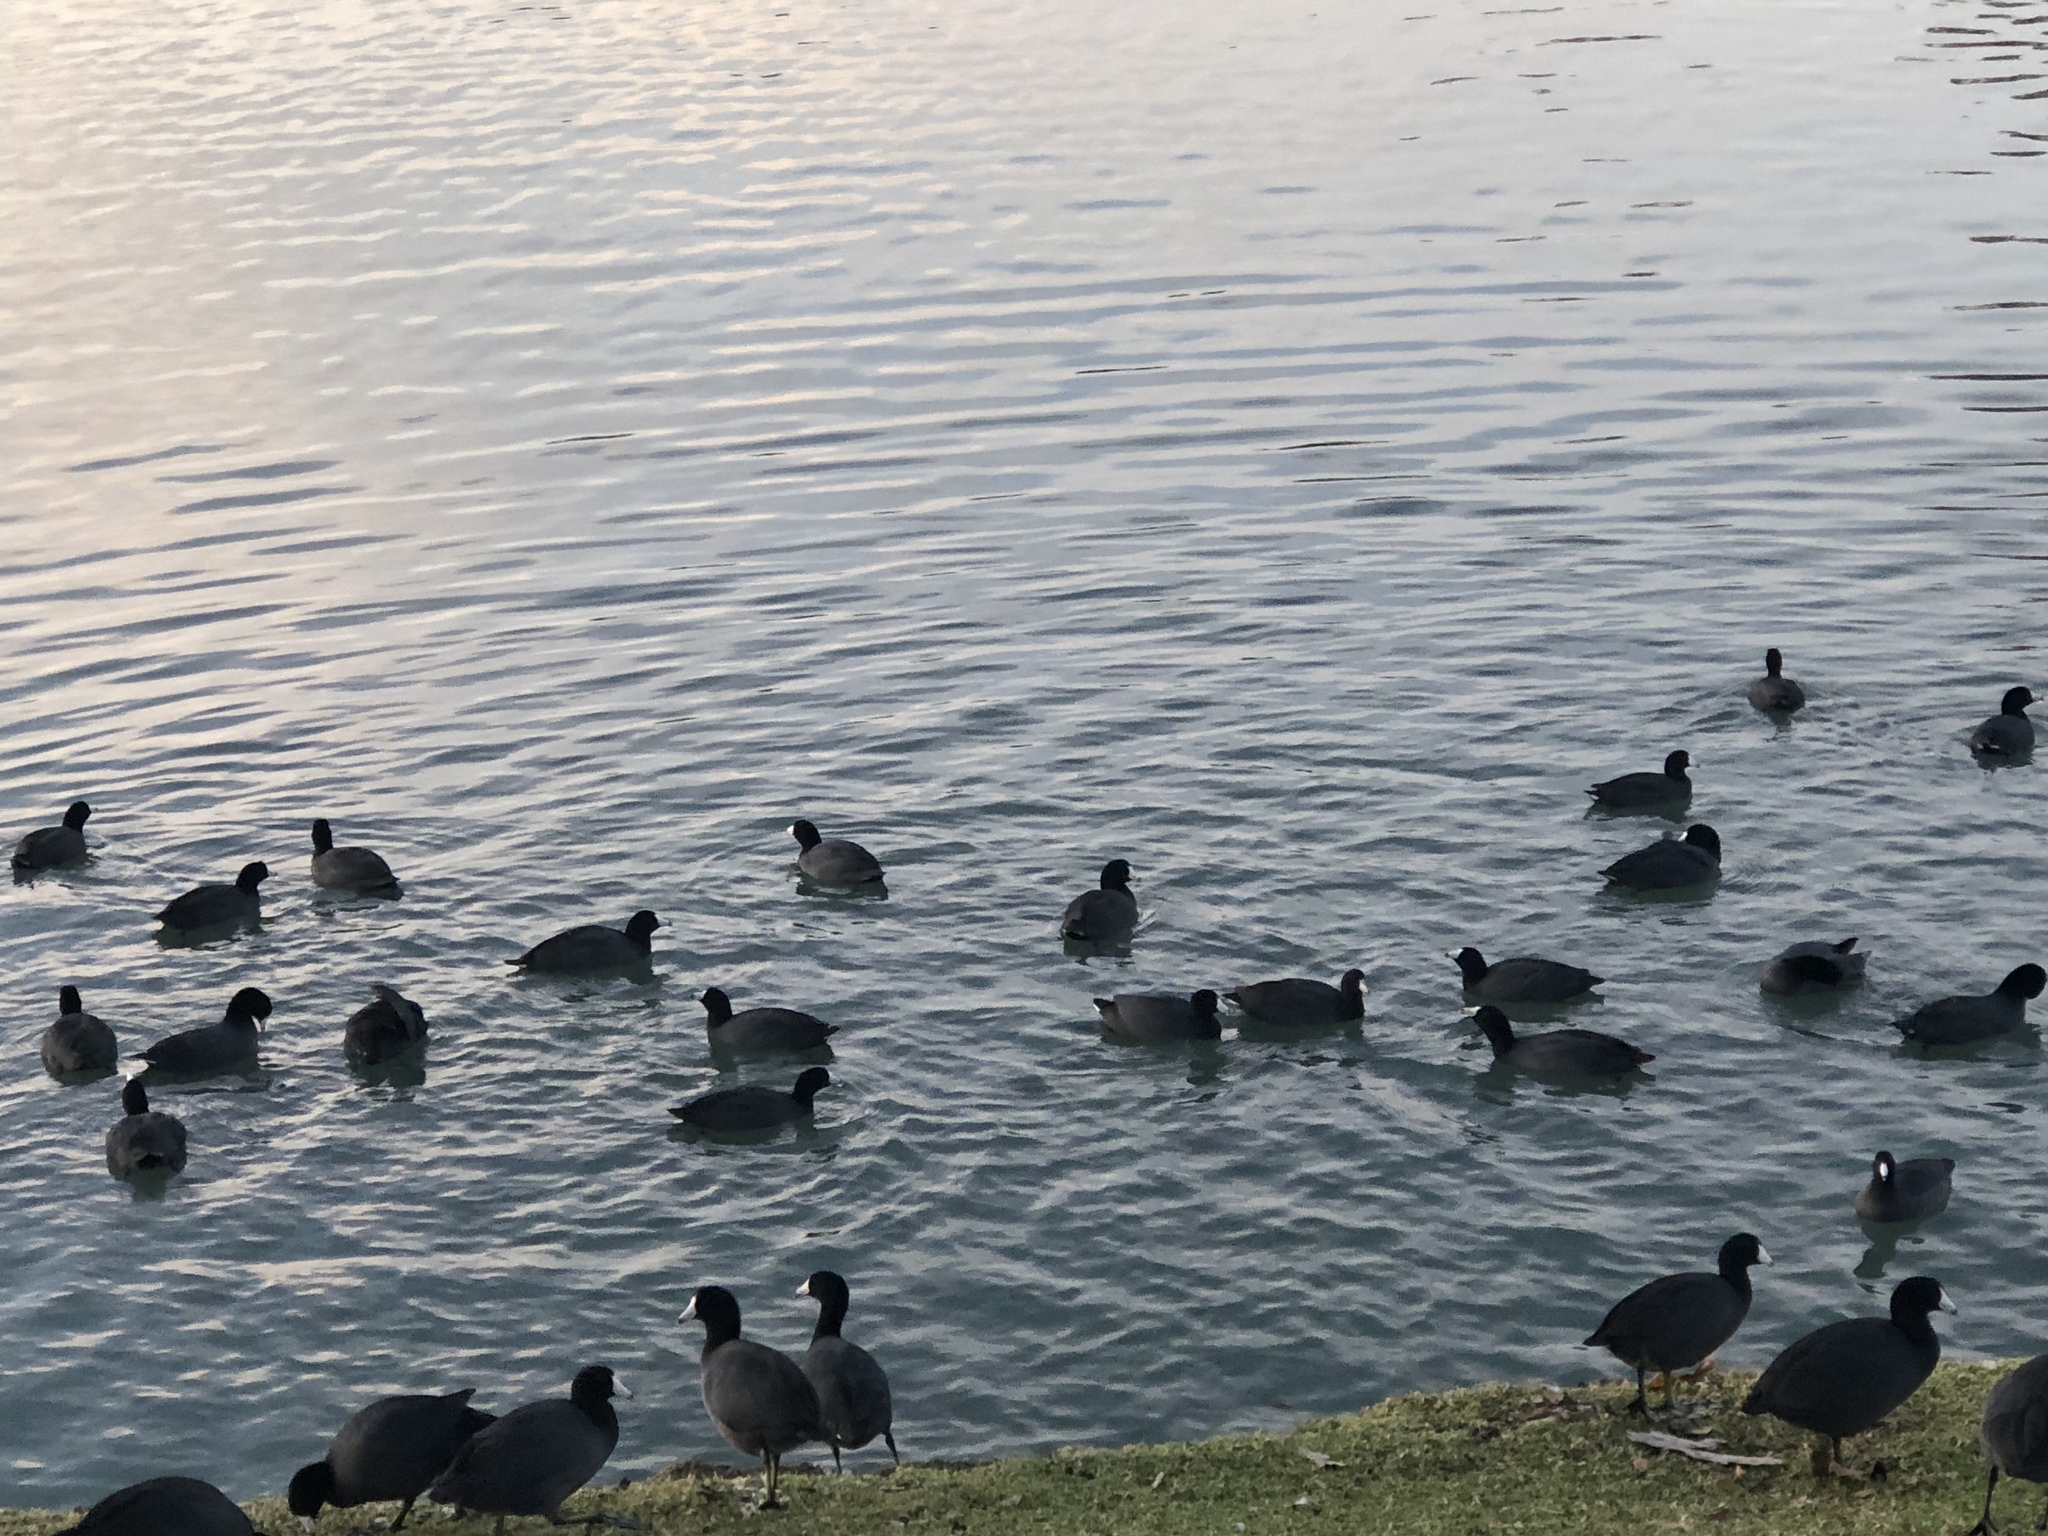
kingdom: Animalia
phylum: Chordata
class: Aves
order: Gruiformes
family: Rallidae
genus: Fulica
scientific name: Fulica americana
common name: American coot
